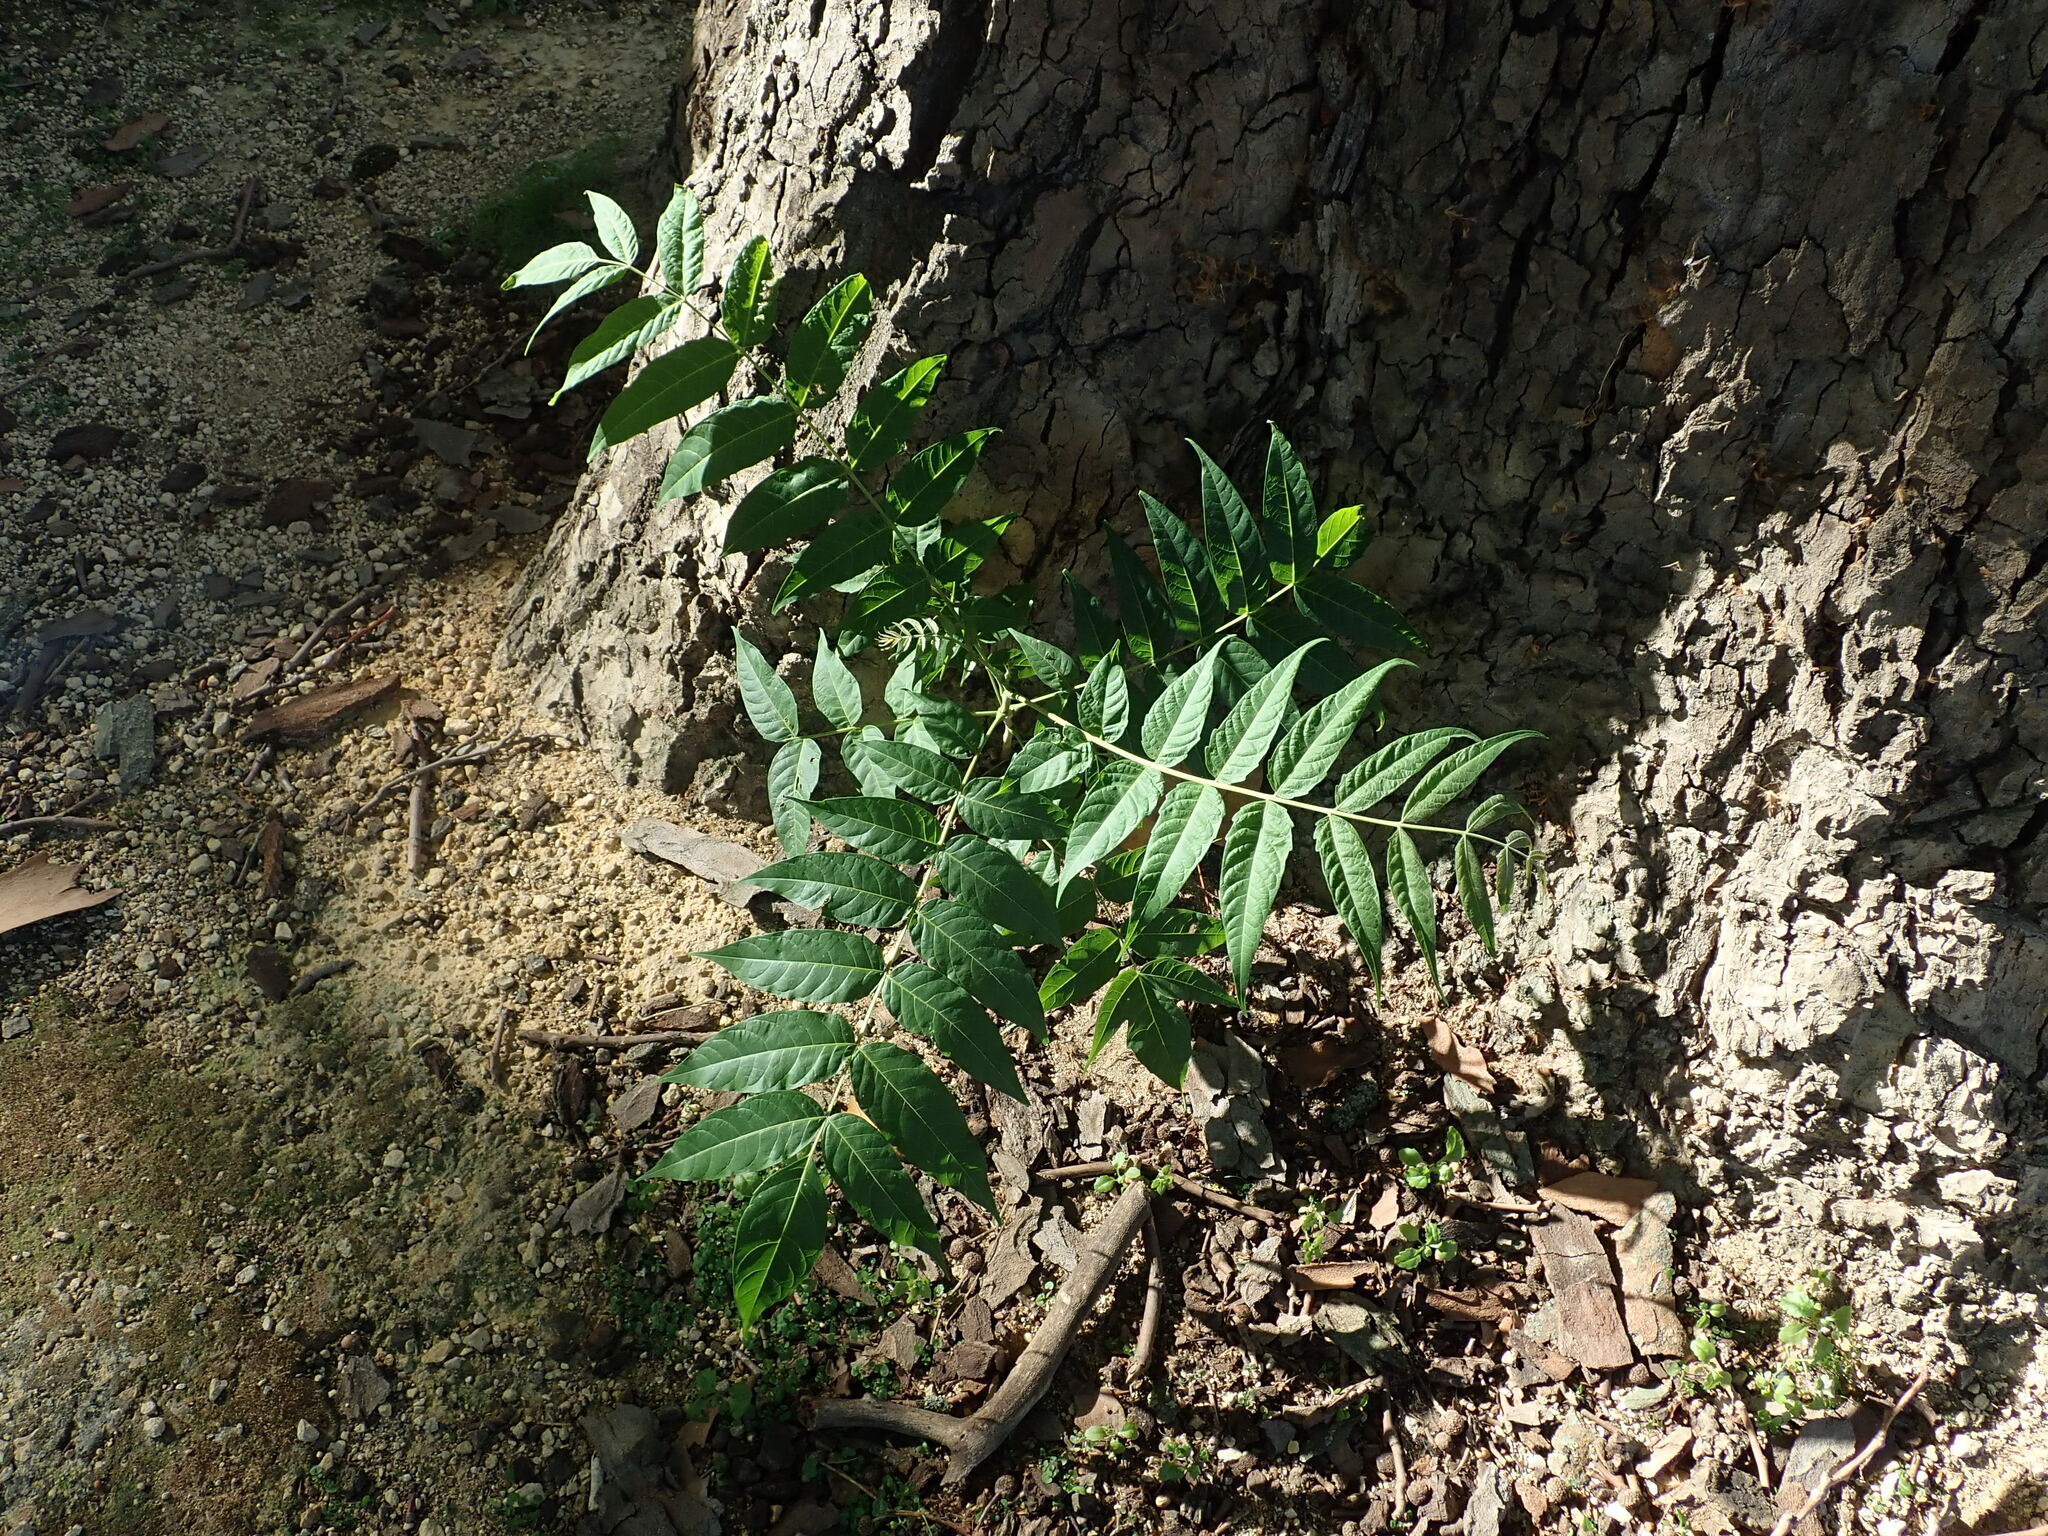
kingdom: Plantae
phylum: Tracheophyta
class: Magnoliopsida
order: Sapindales
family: Simaroubaceae
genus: Ailanthus
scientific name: Ailanthus altissima
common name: Tree-of-heaven
